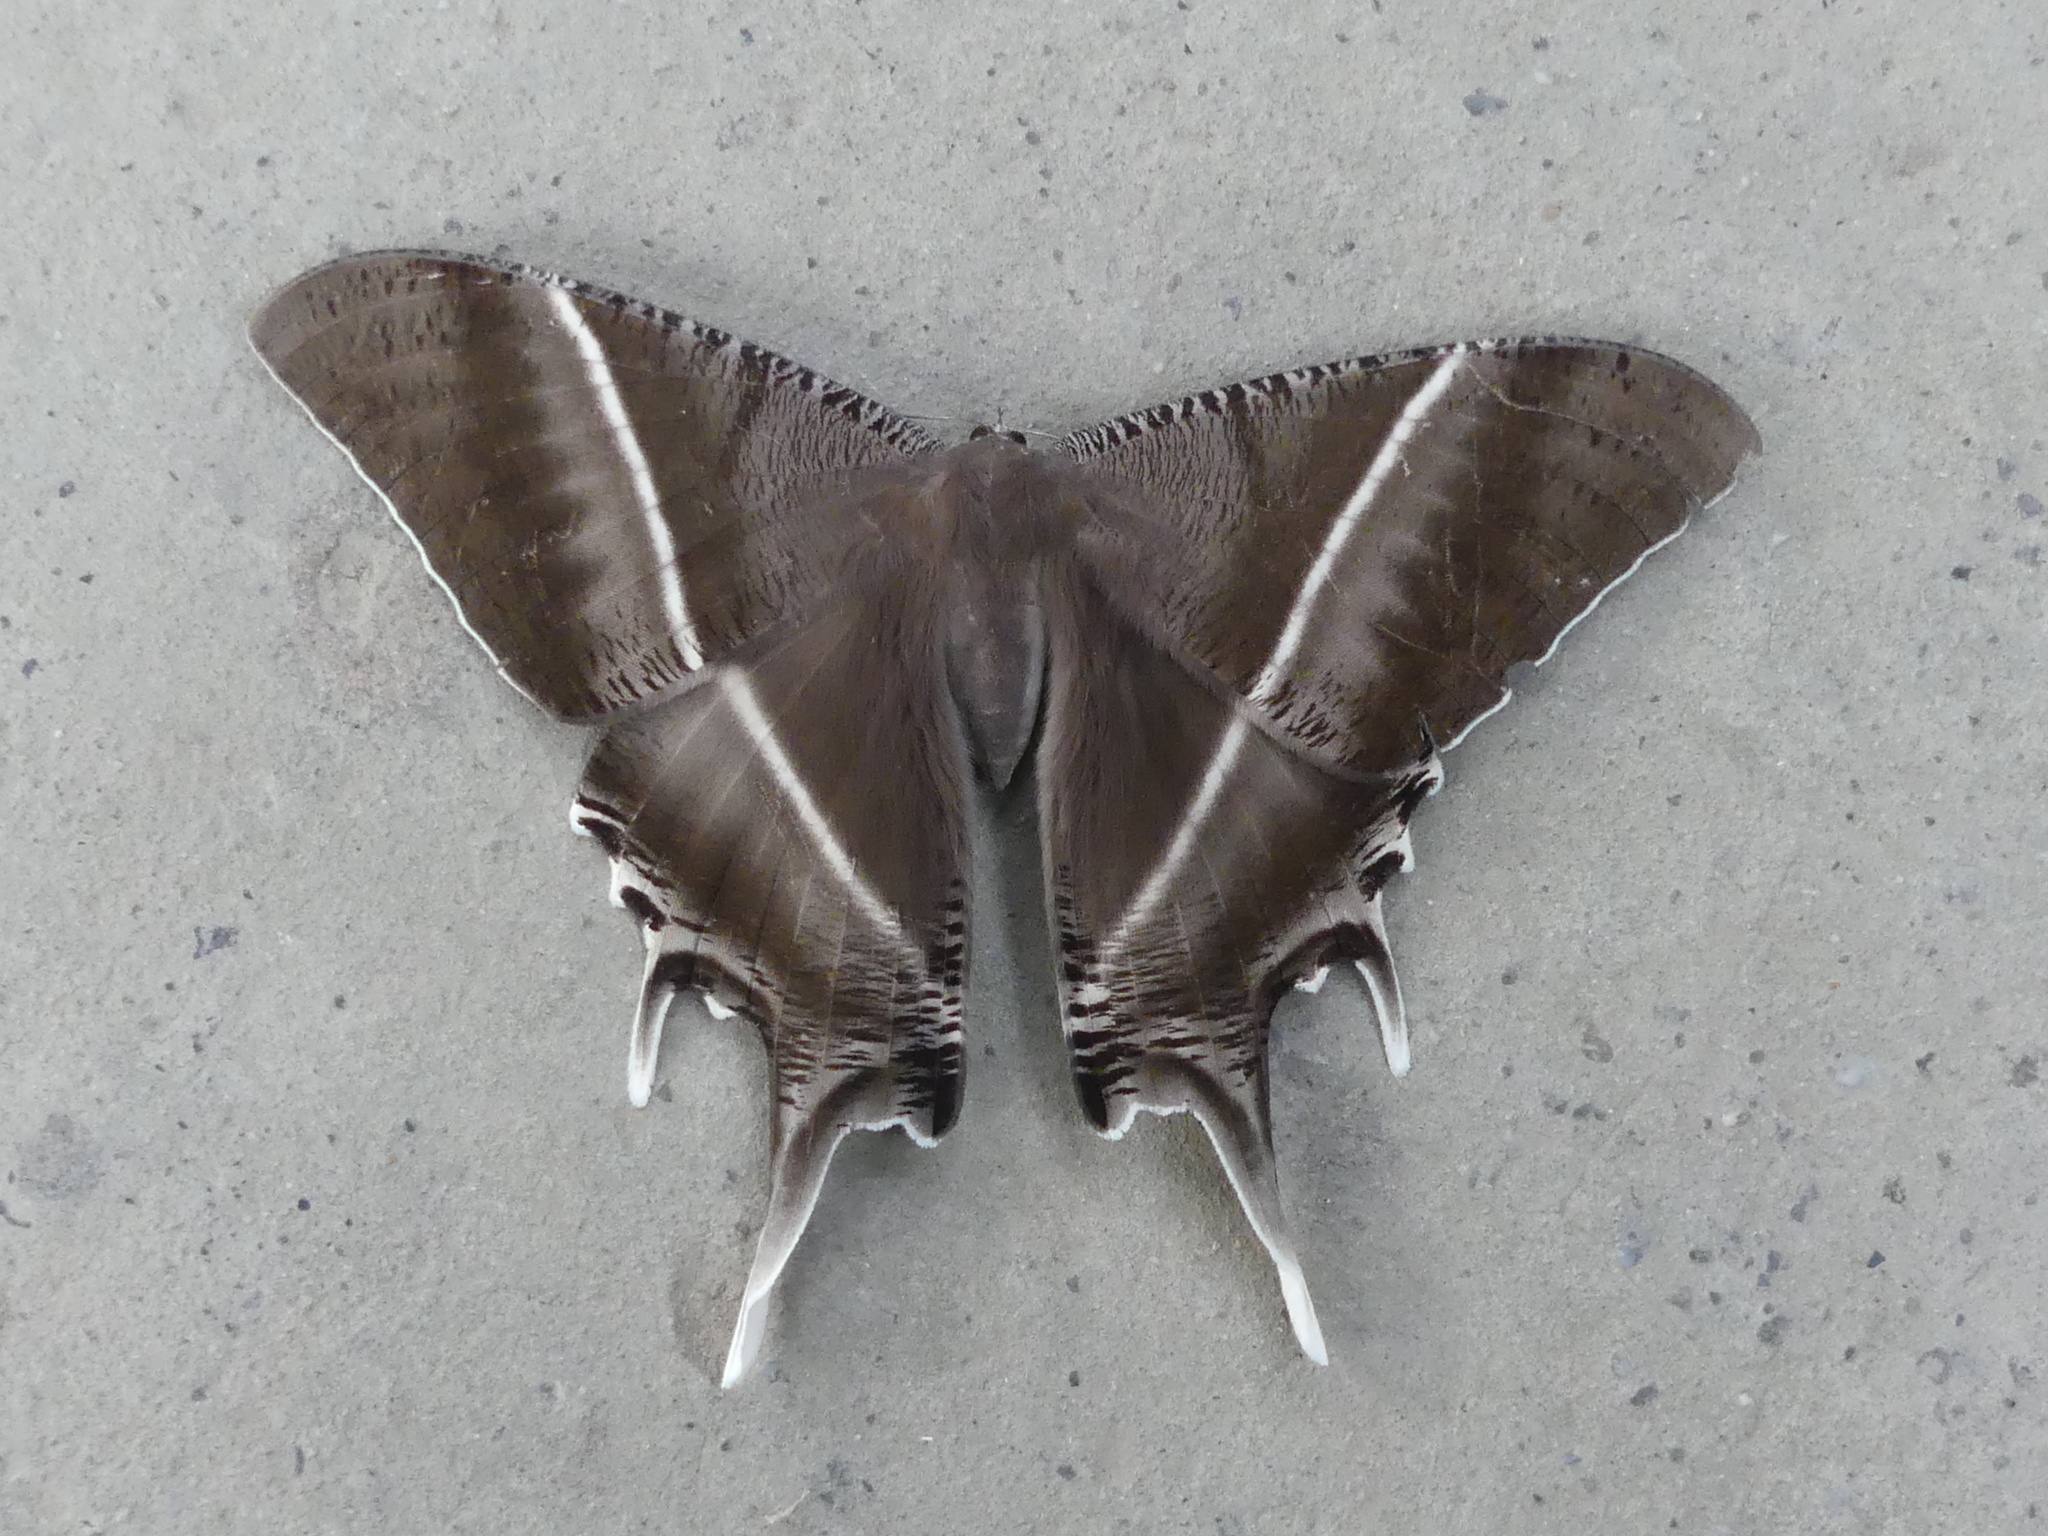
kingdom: Animalia
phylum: Arthropoda
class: Insecta
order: Lepidoptera
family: Uraniidae
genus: Lyssa
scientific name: Lyssa zampa
